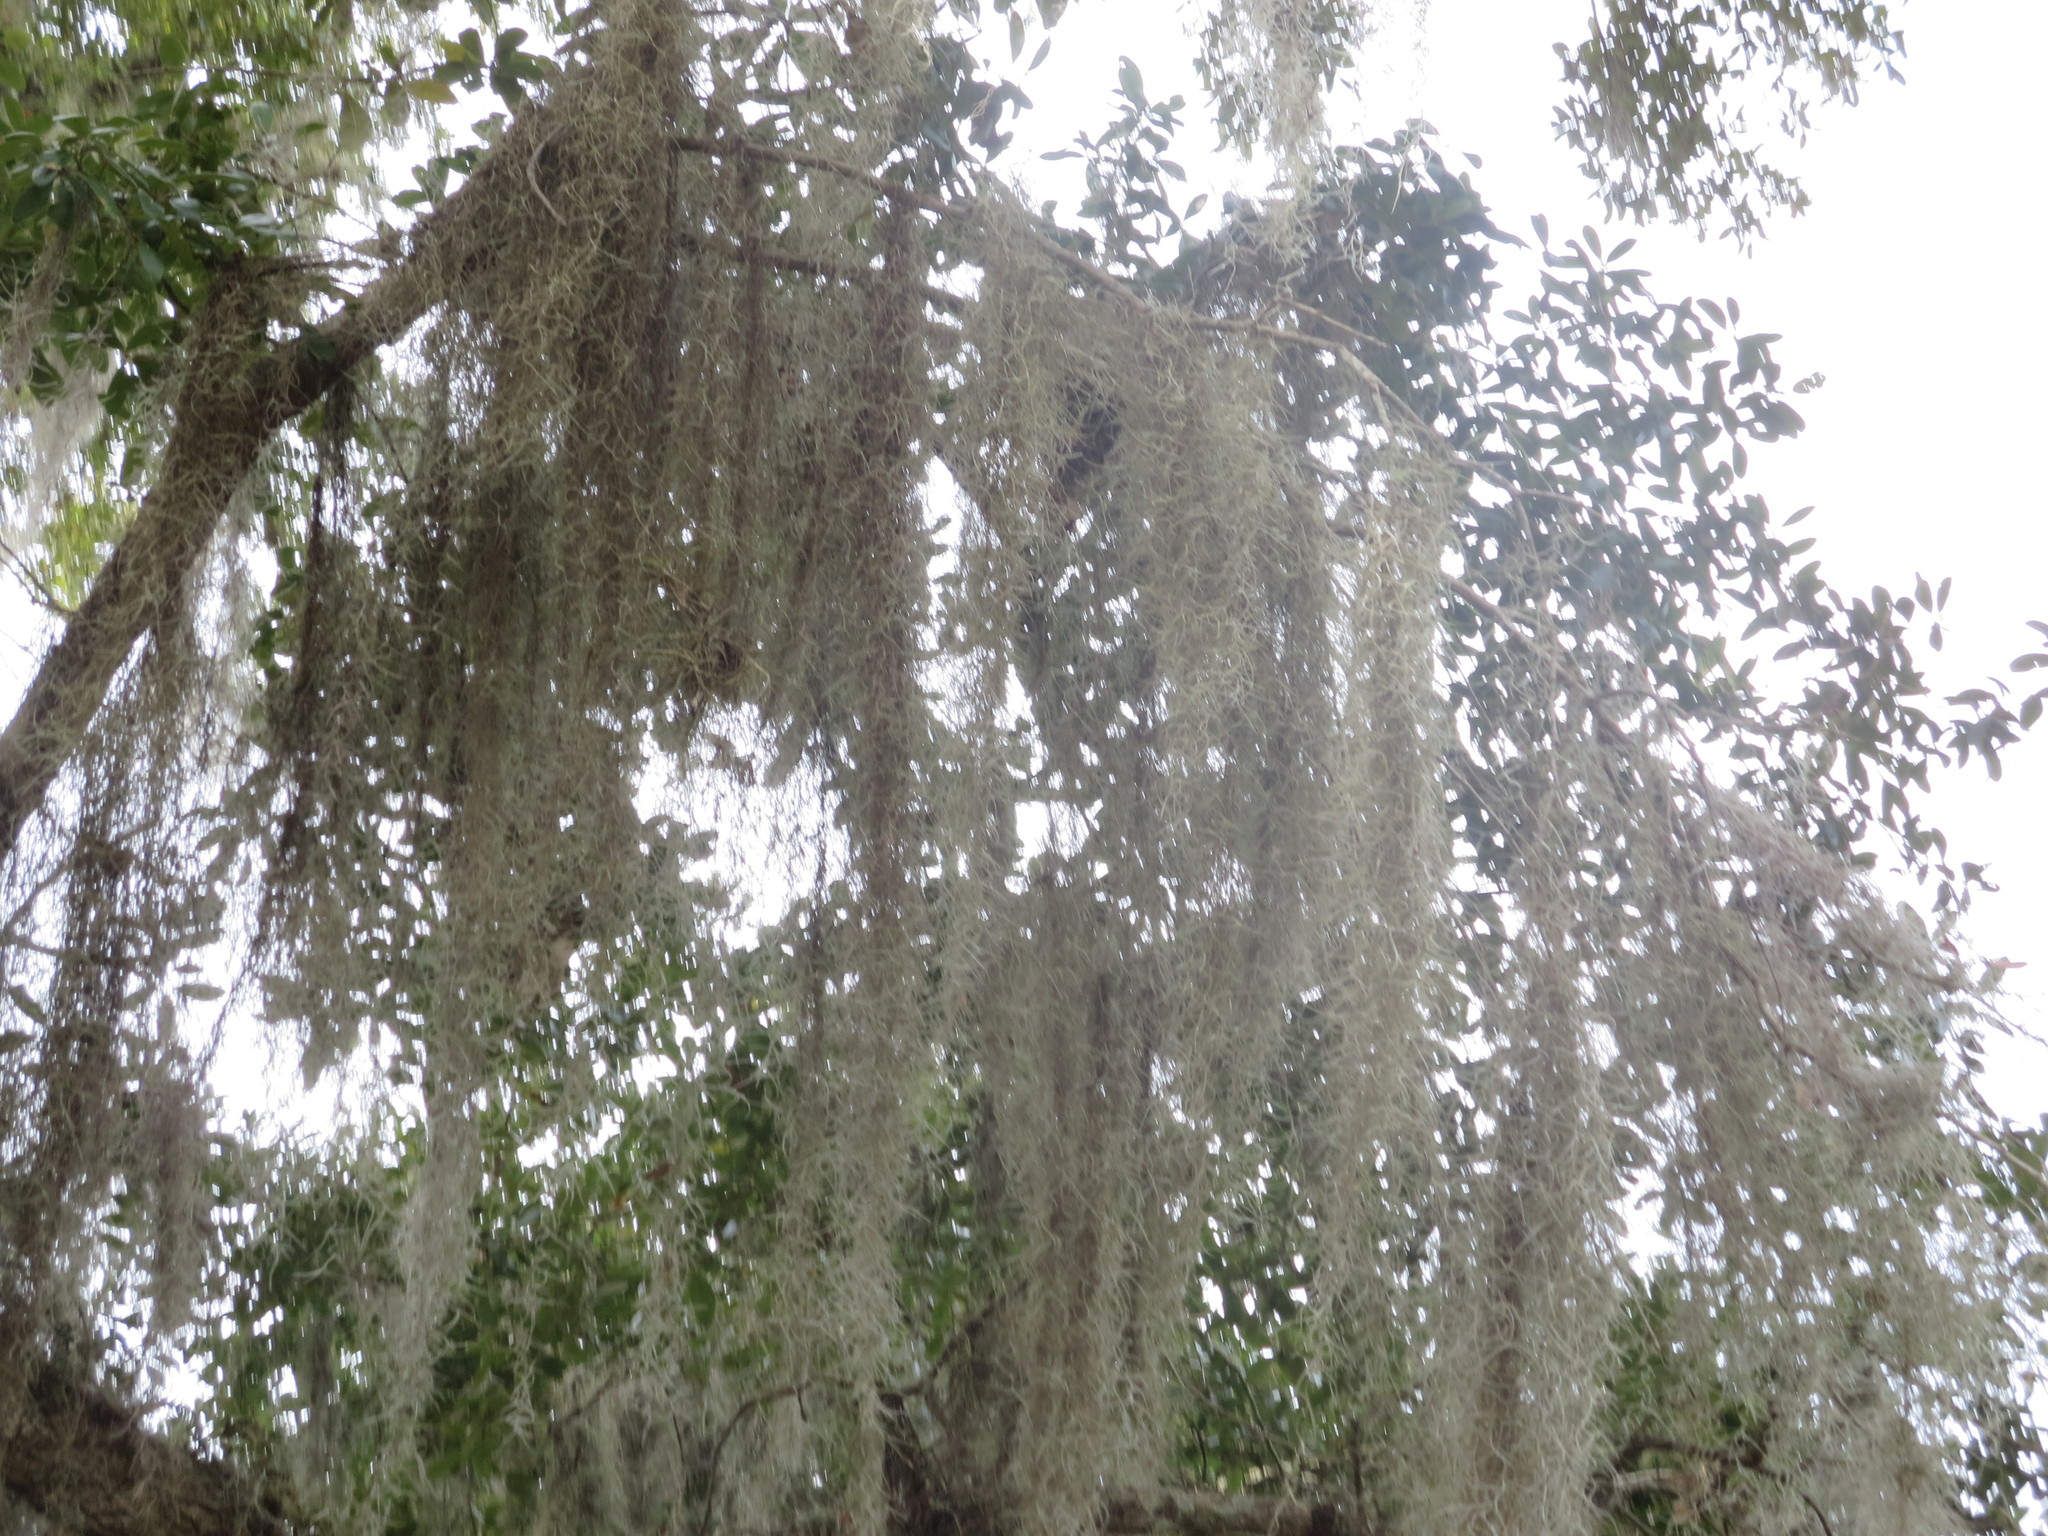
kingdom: Plantae
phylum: Tracheophyta
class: Liliopsida
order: Poales
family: Bromeliaceae
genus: Tillandsia
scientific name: Tillandsia usneoides
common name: Spanish moss
